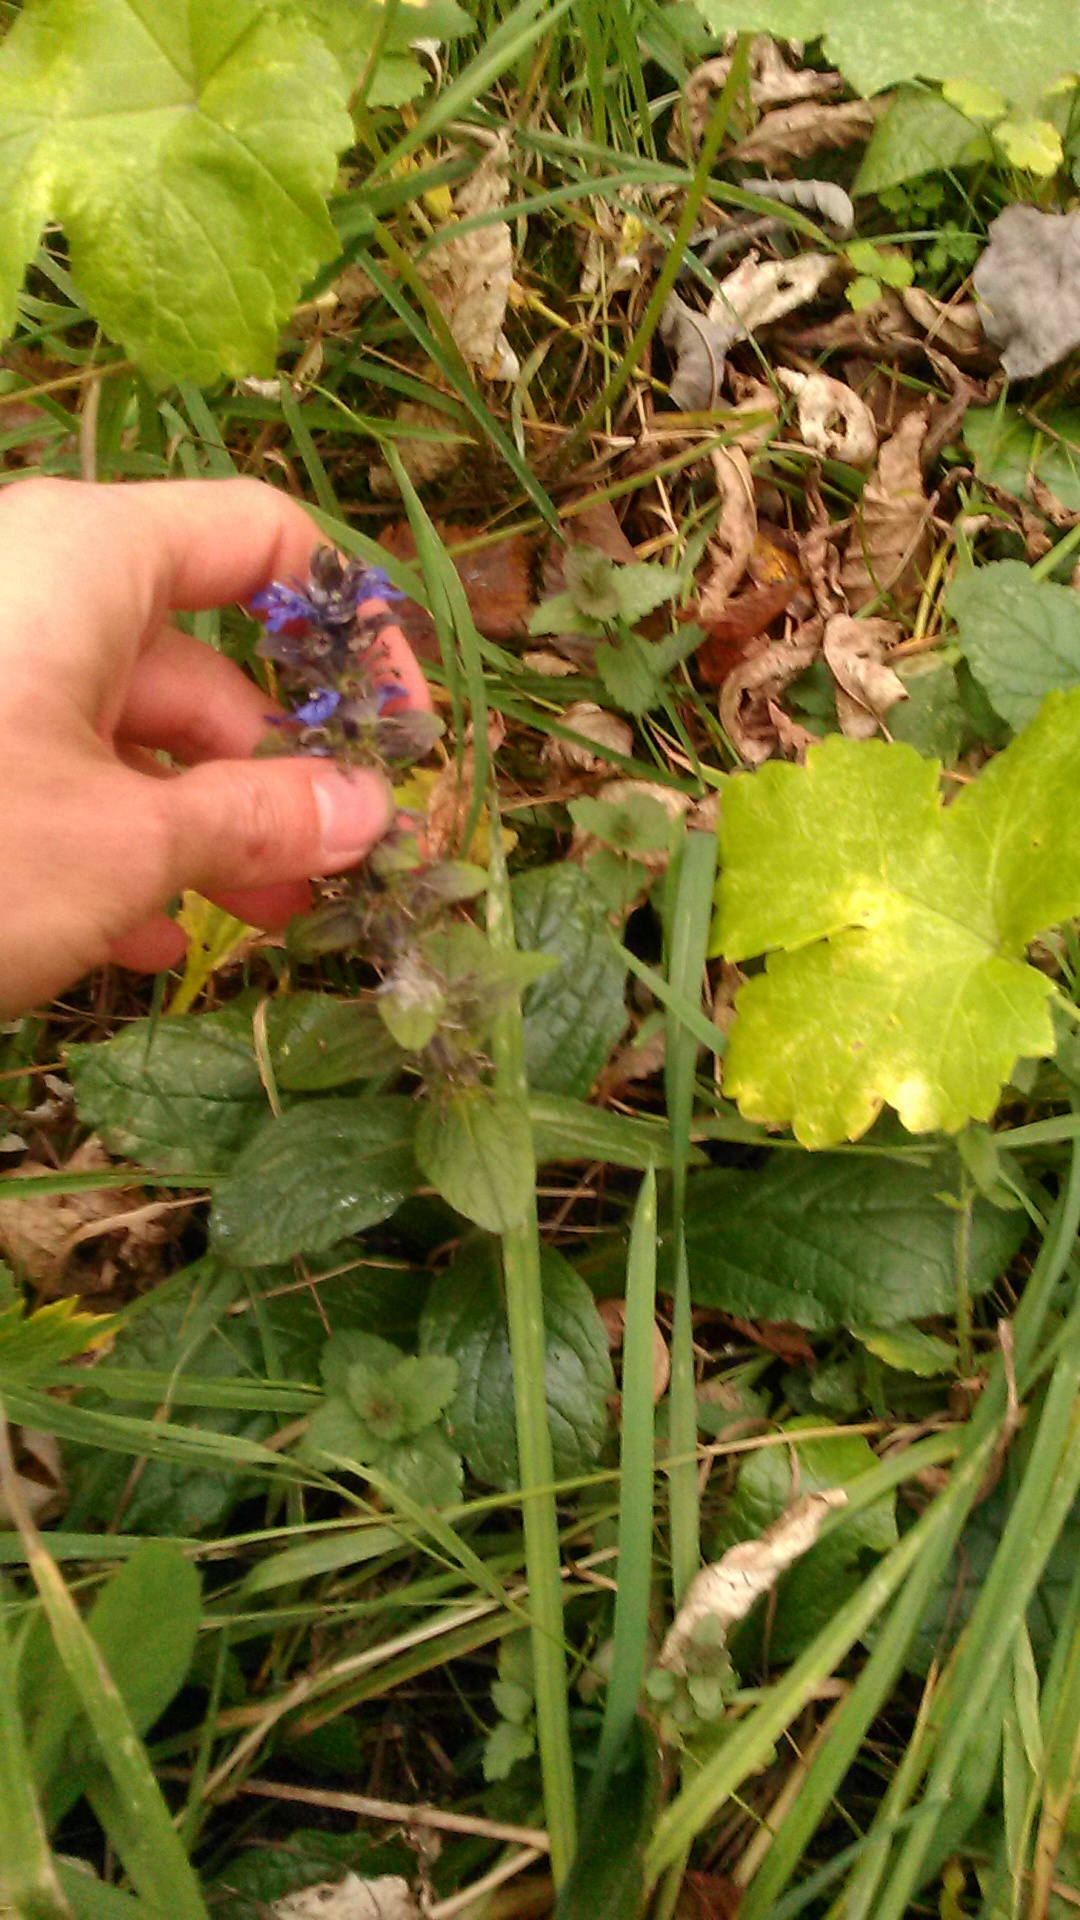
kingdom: Plantae
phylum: Tracheophyta
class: Magnoliopsida
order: Lamiales
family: Lamiaceae
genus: Ajuga
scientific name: Ajuga reptans
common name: Bugle
